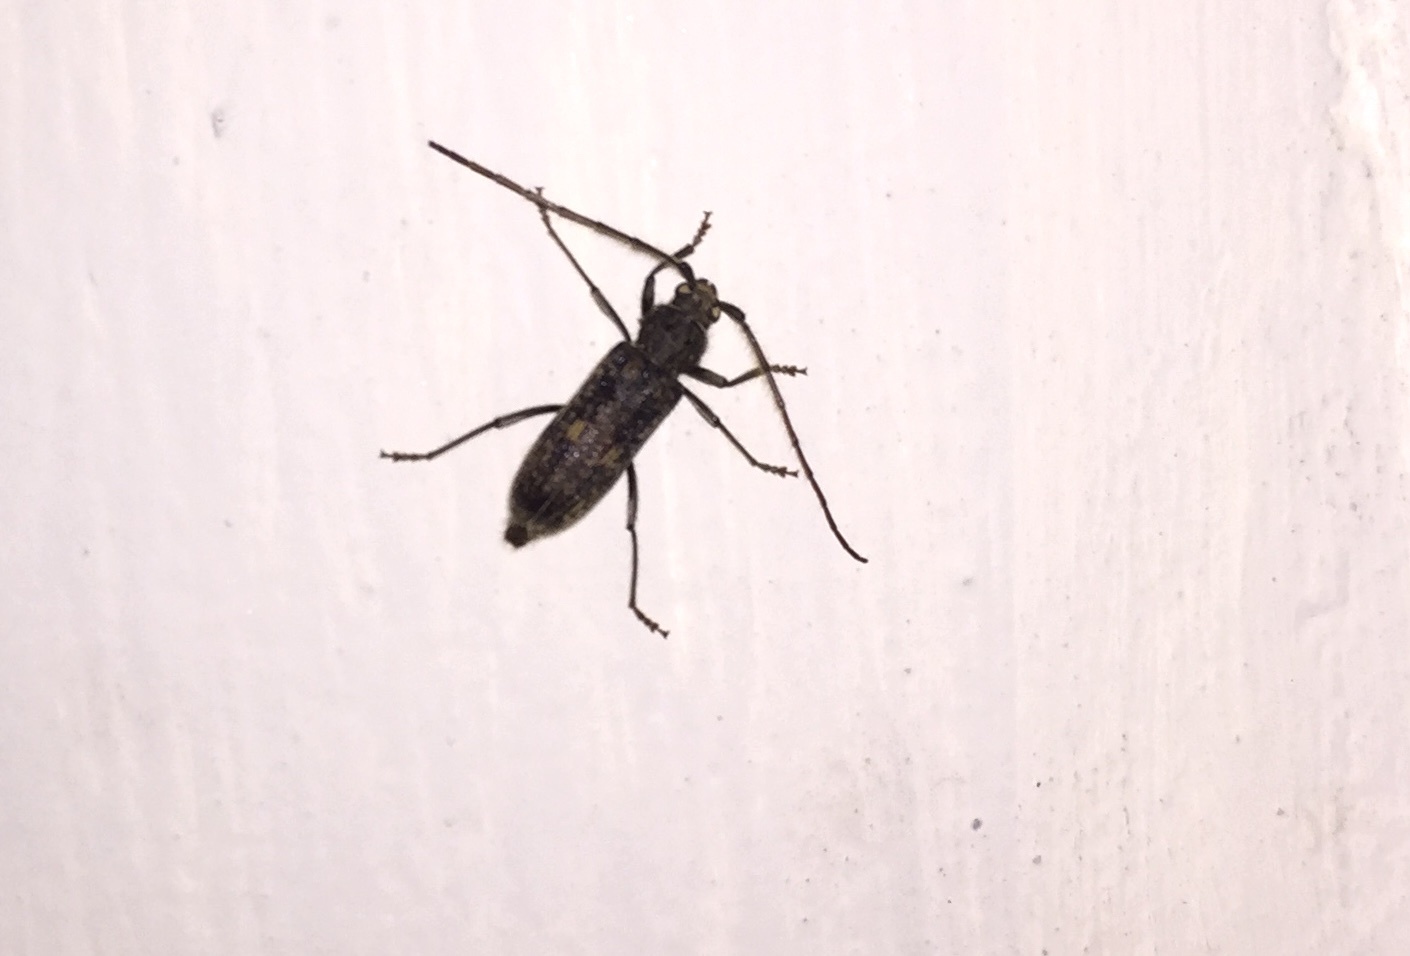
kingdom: Animalia
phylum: Arthropoda
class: Insecta
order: Coleoptera
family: Cerambycidae
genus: Zoodes
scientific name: Zoodes liturifer
